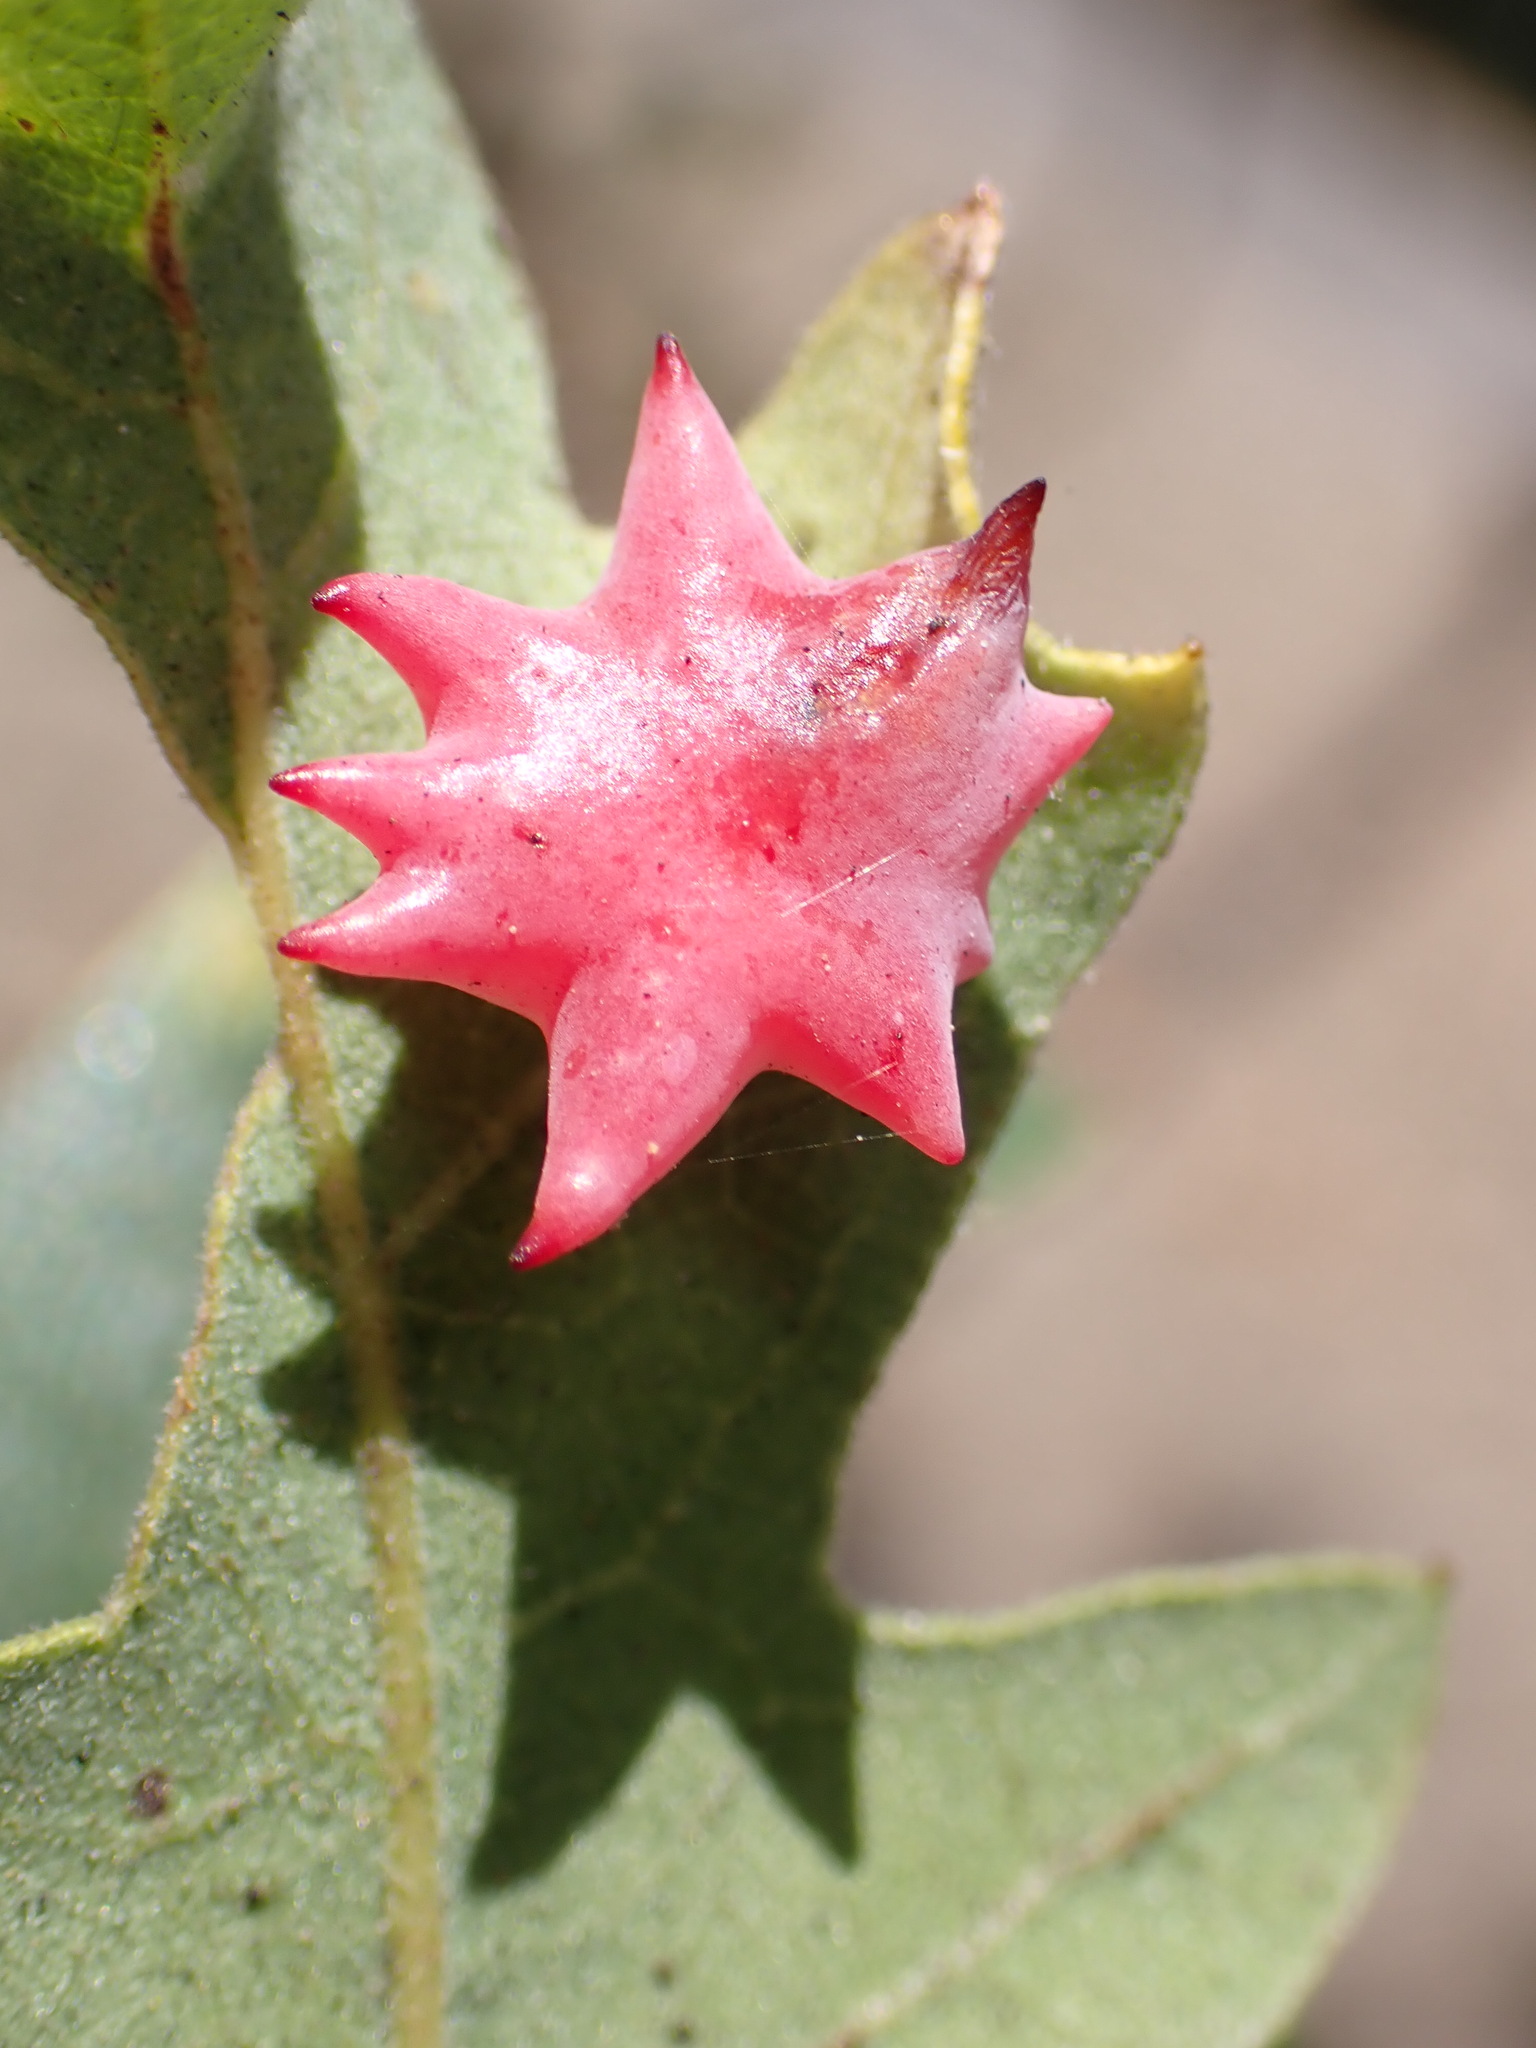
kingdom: Animalia
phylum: Arthropoda
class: Insecta
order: Hymenoptera
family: Cynipidae
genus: Cynips
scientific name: Cynips douglasi
